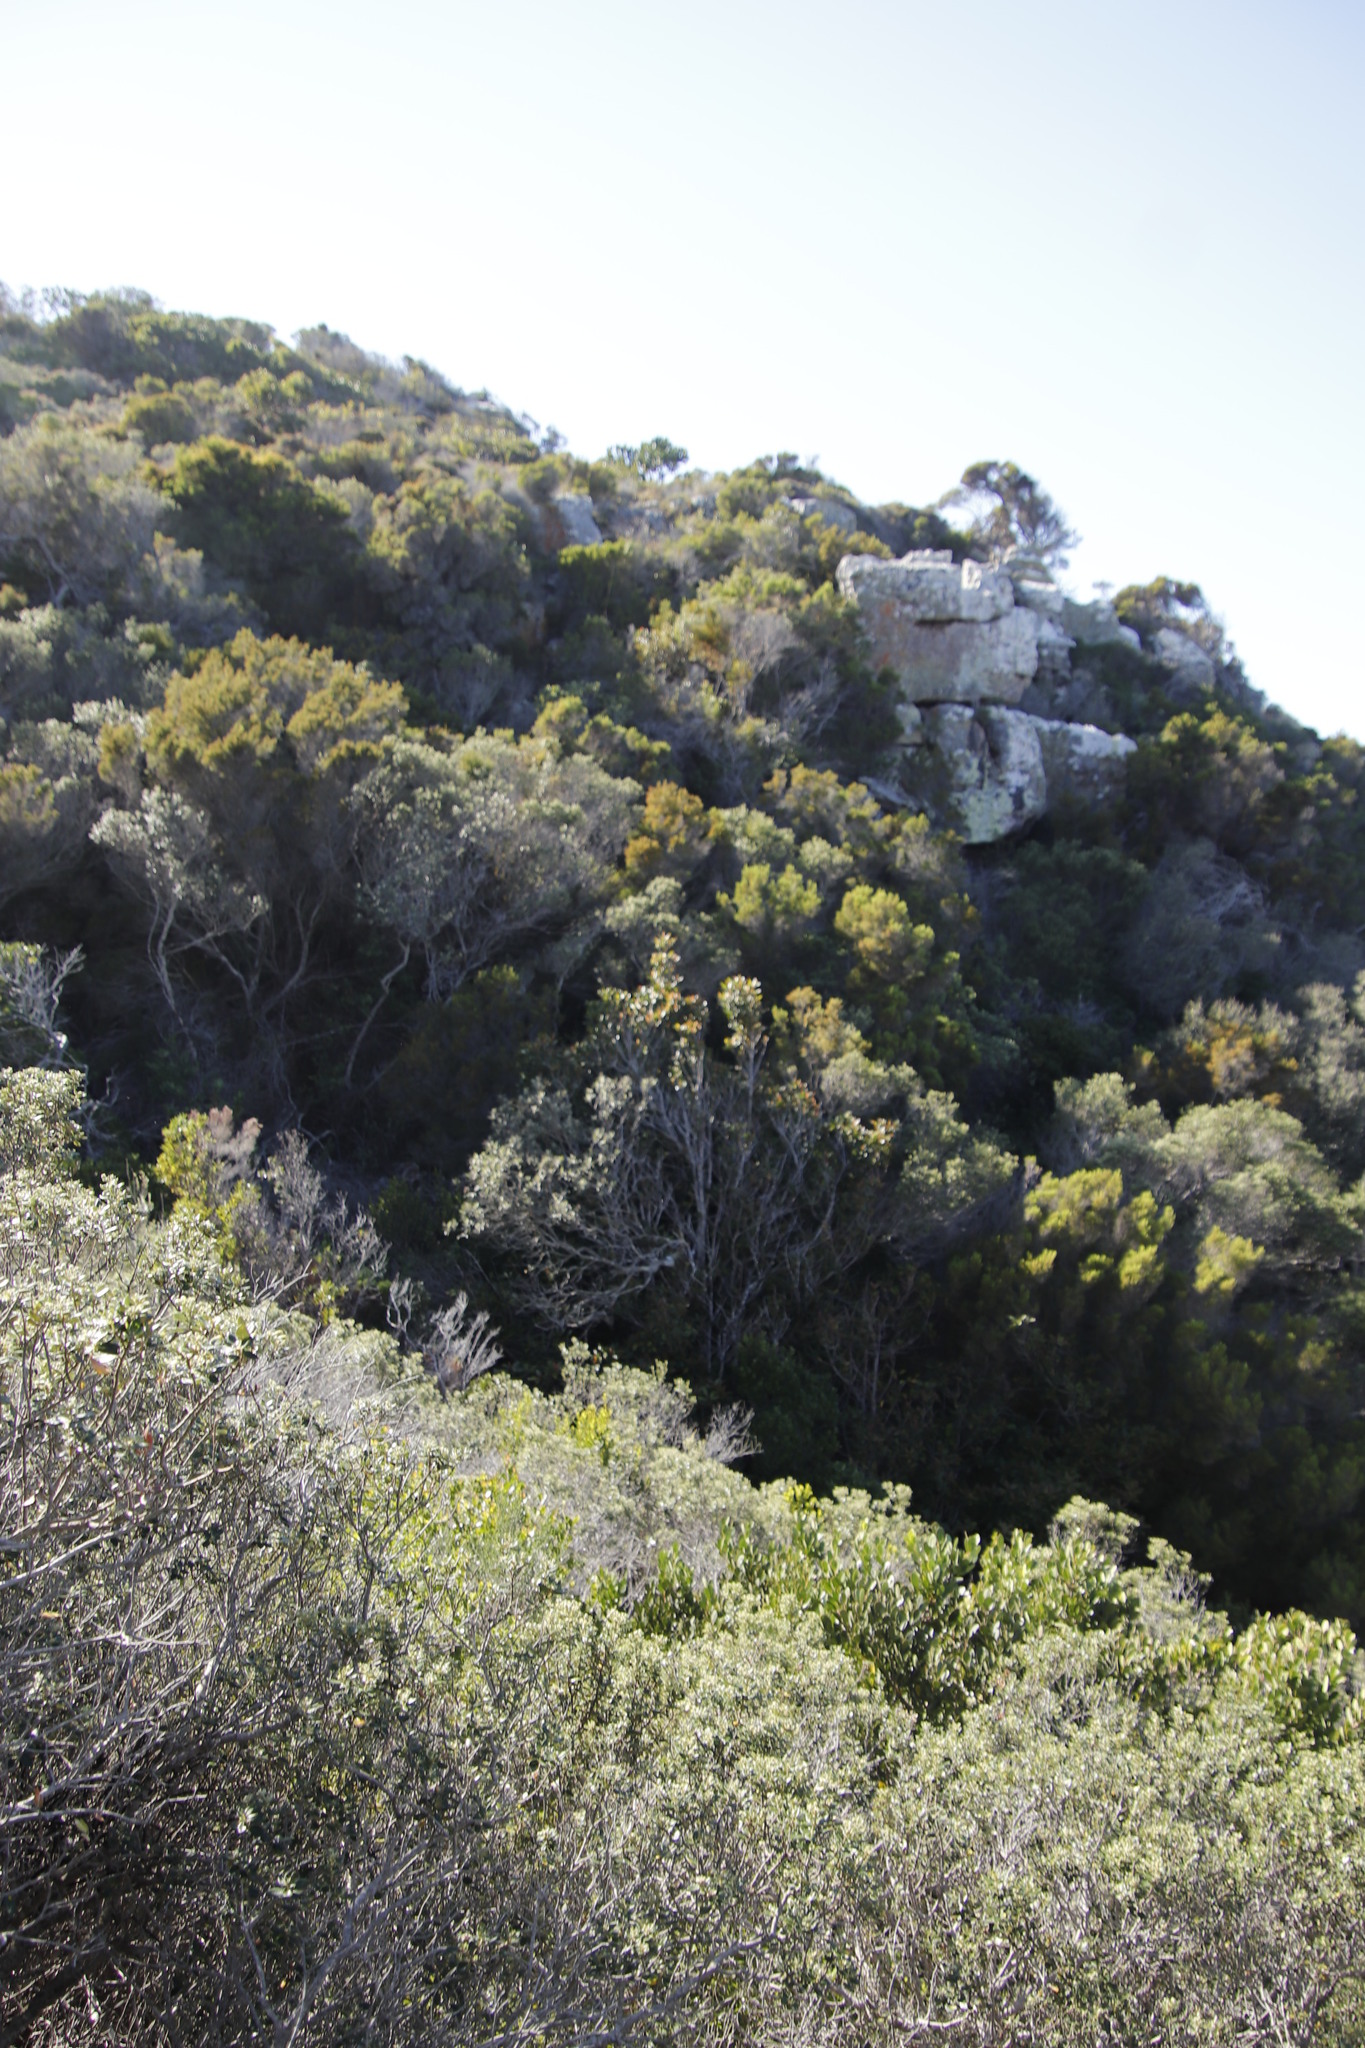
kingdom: Plantae
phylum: Tracheophyta
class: Magnoliopsida
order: Ericales
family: Primulaceae
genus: Myrsine
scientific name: Myrsine melanophloeos
